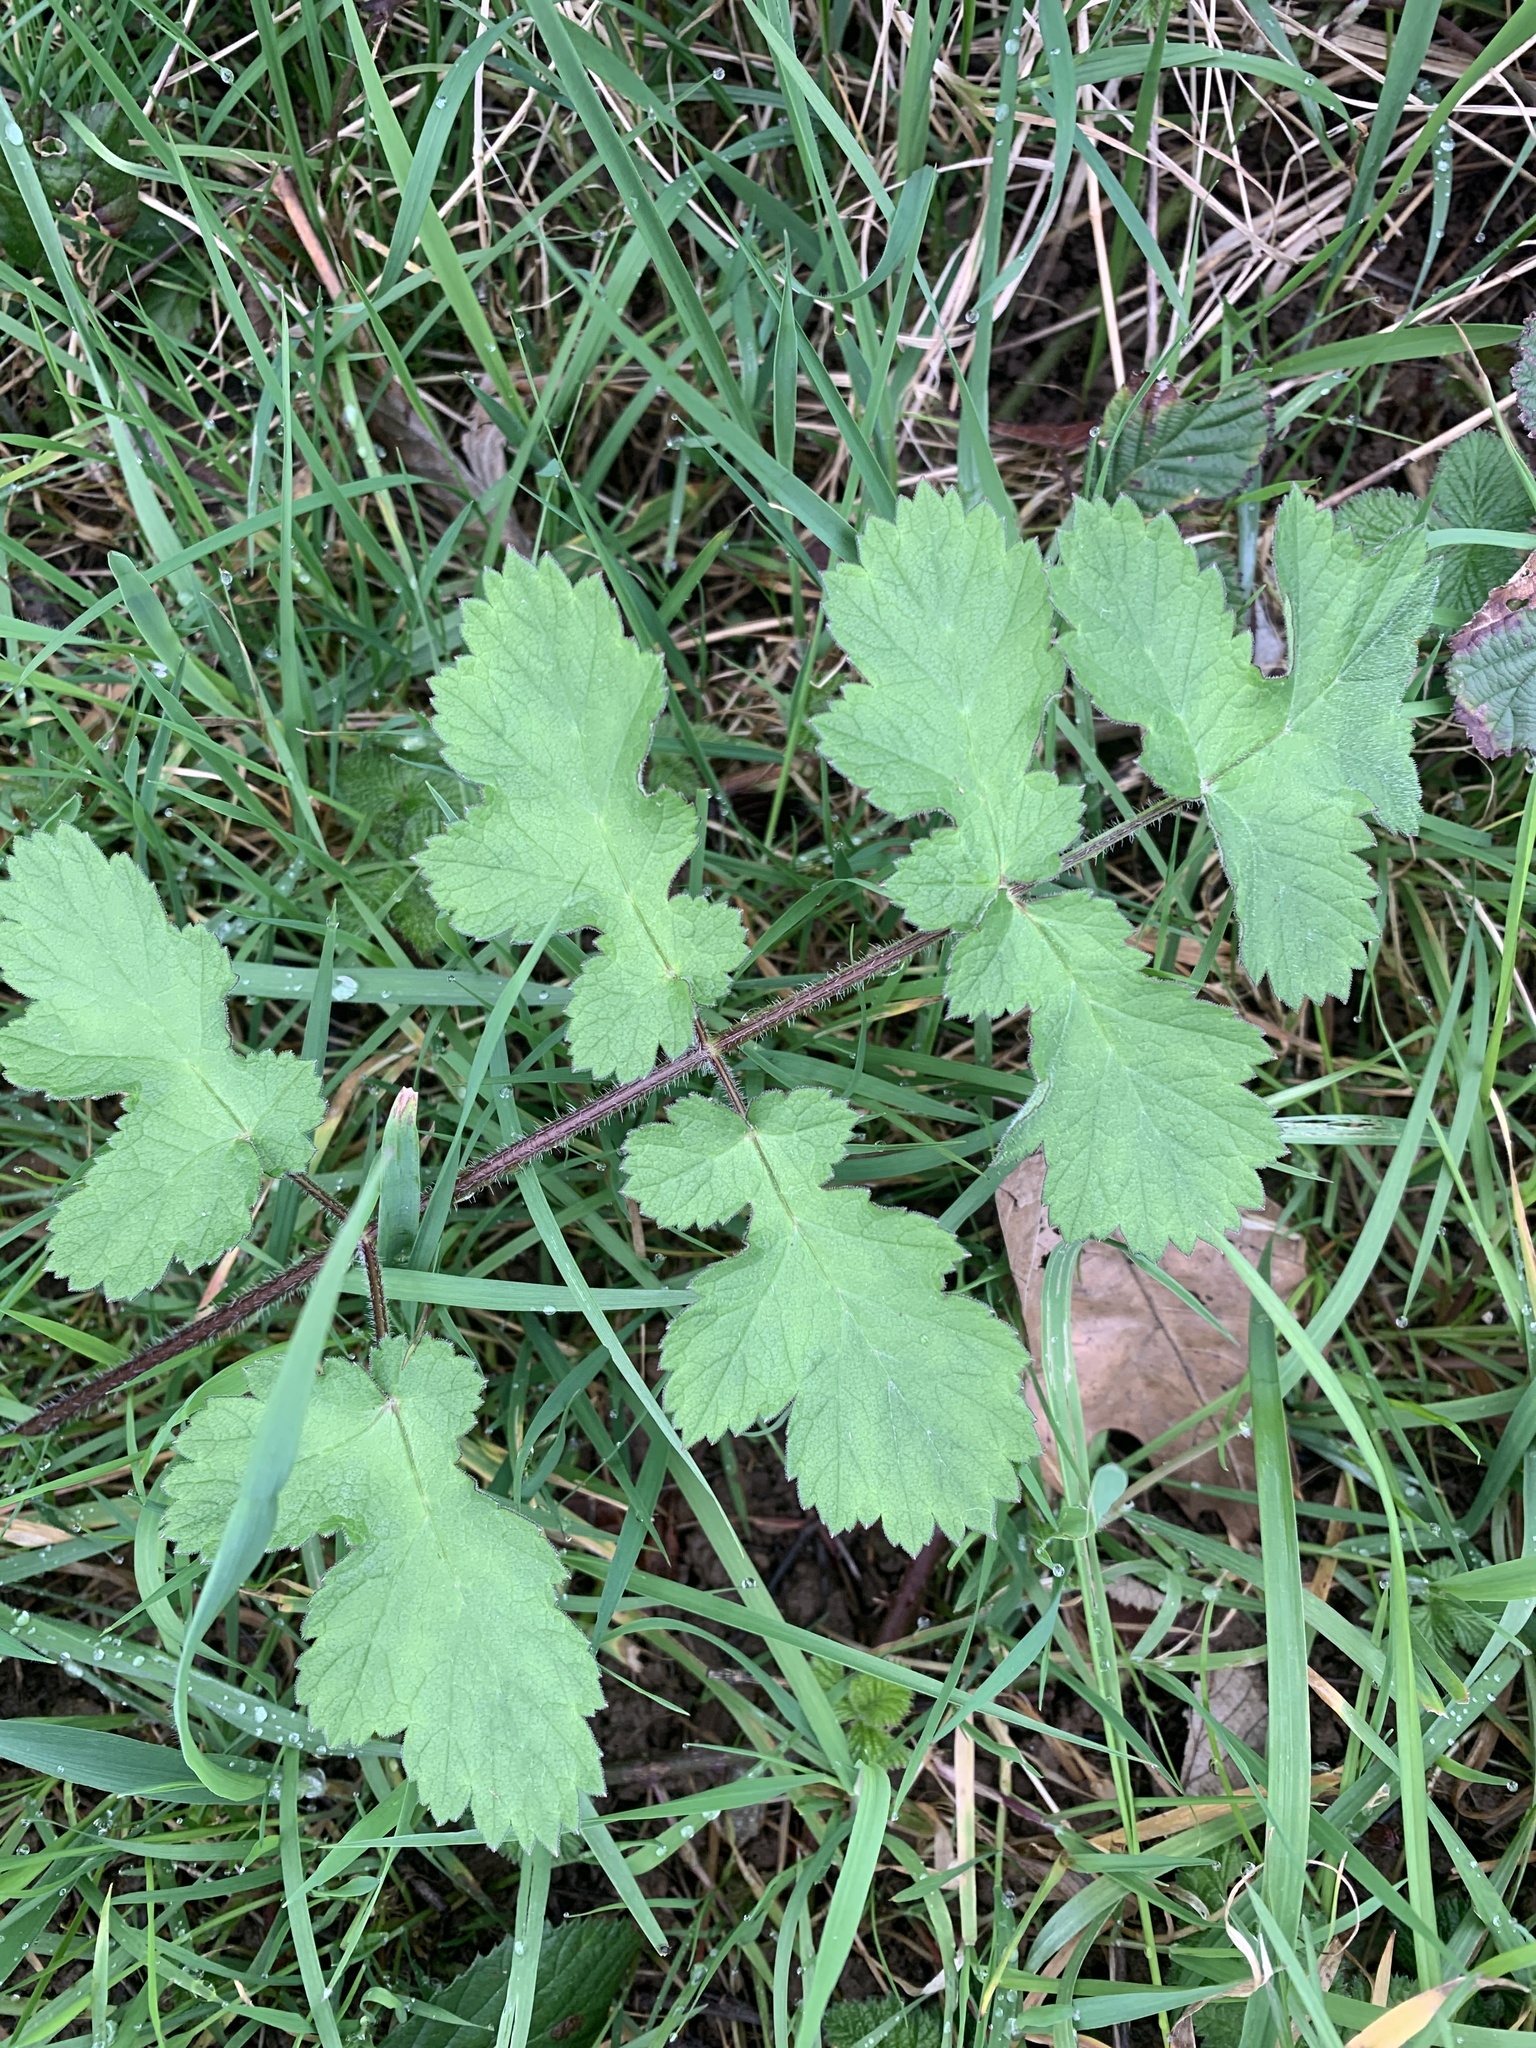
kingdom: Plantae
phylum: Tracheophyta
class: Magnoliopsida
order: Apiales
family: Apiaceae
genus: Heracleum
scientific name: Heracleum sphondylium
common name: Hogweed
